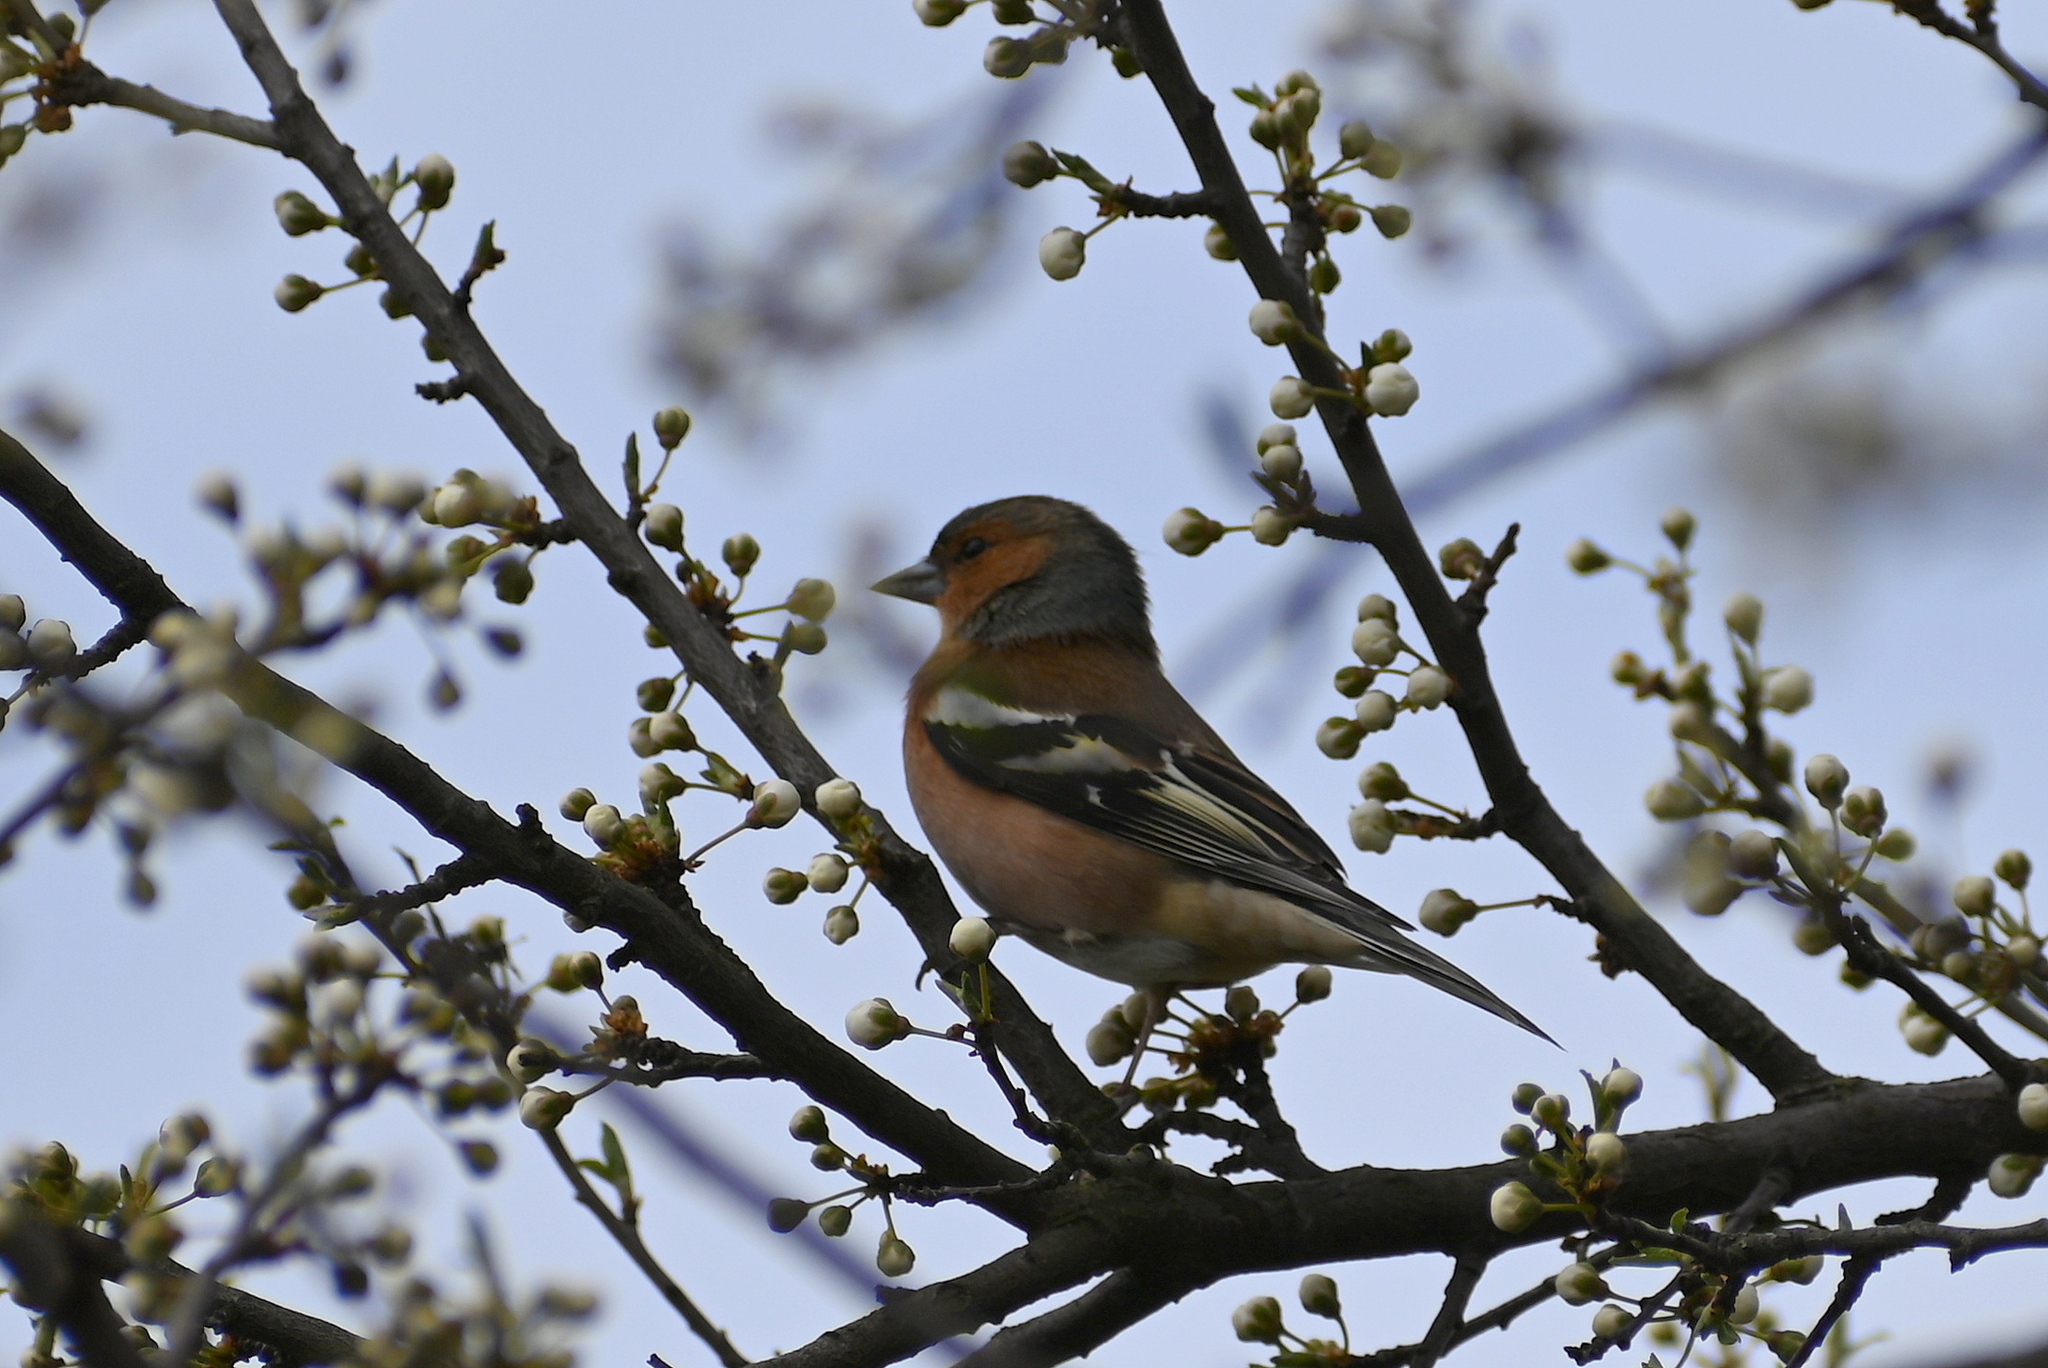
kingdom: Animalia
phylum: Chordata
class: Aves
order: Passeriformes
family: Fringillidae
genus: Fringilla
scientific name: Fringilla coelebs
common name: Common chaffinch
